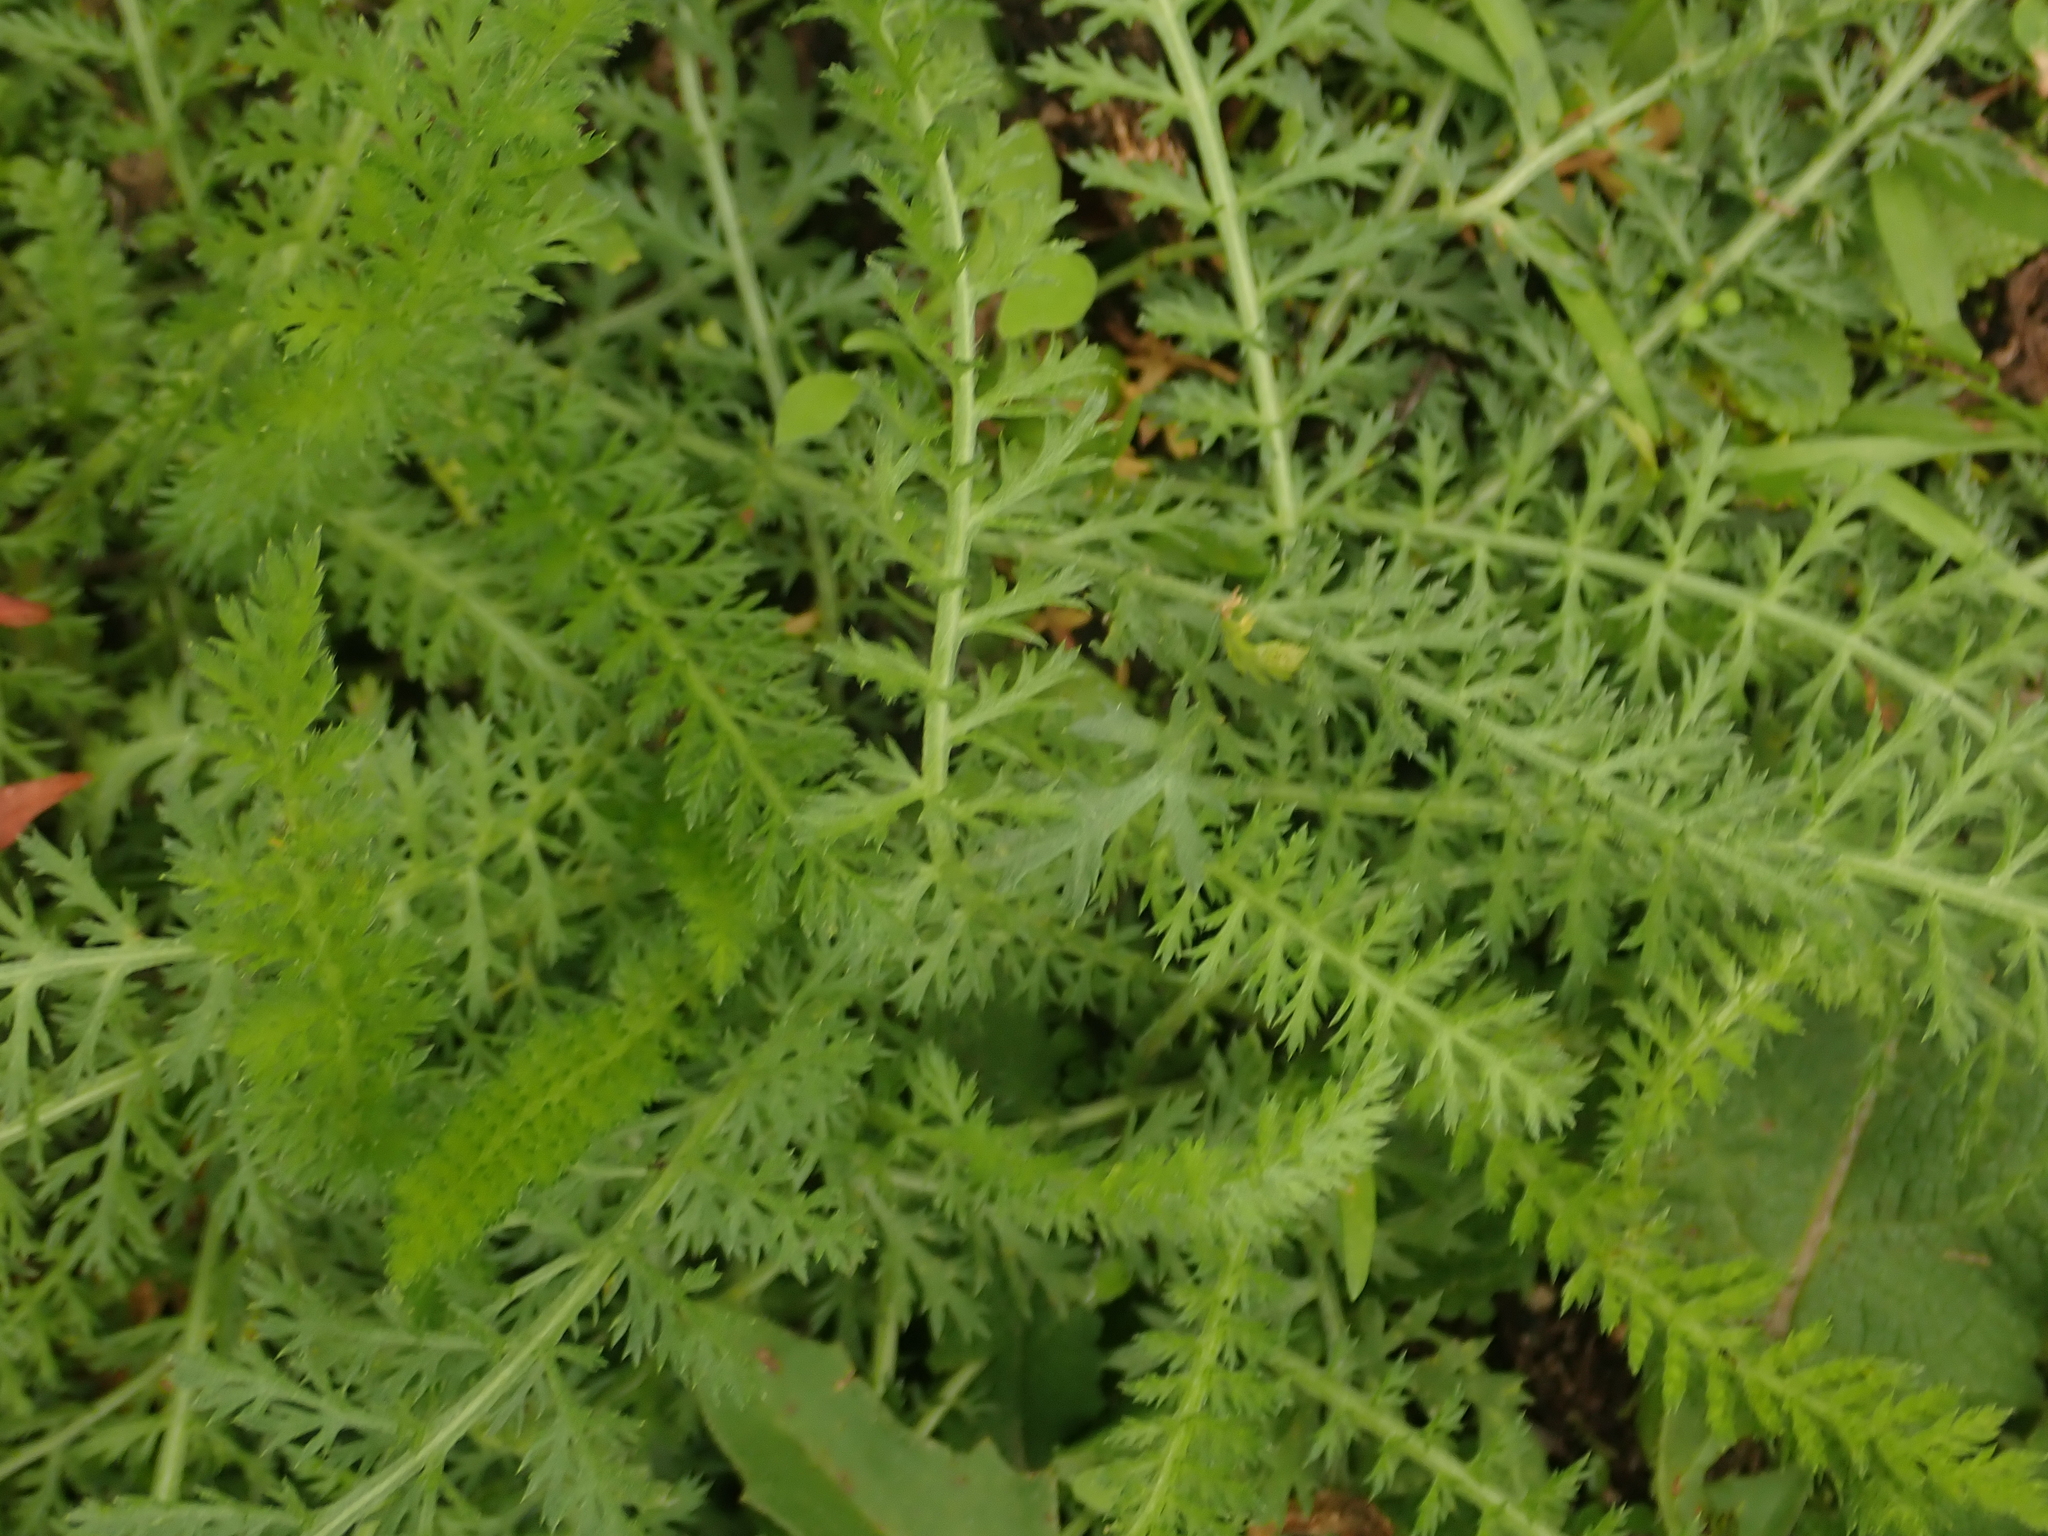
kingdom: Plantae
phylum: Tracheophyta
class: Magnoliopsida
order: Asterales
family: Asteraceae
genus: Achillea
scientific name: Achillea millefolium
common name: Yarrow
